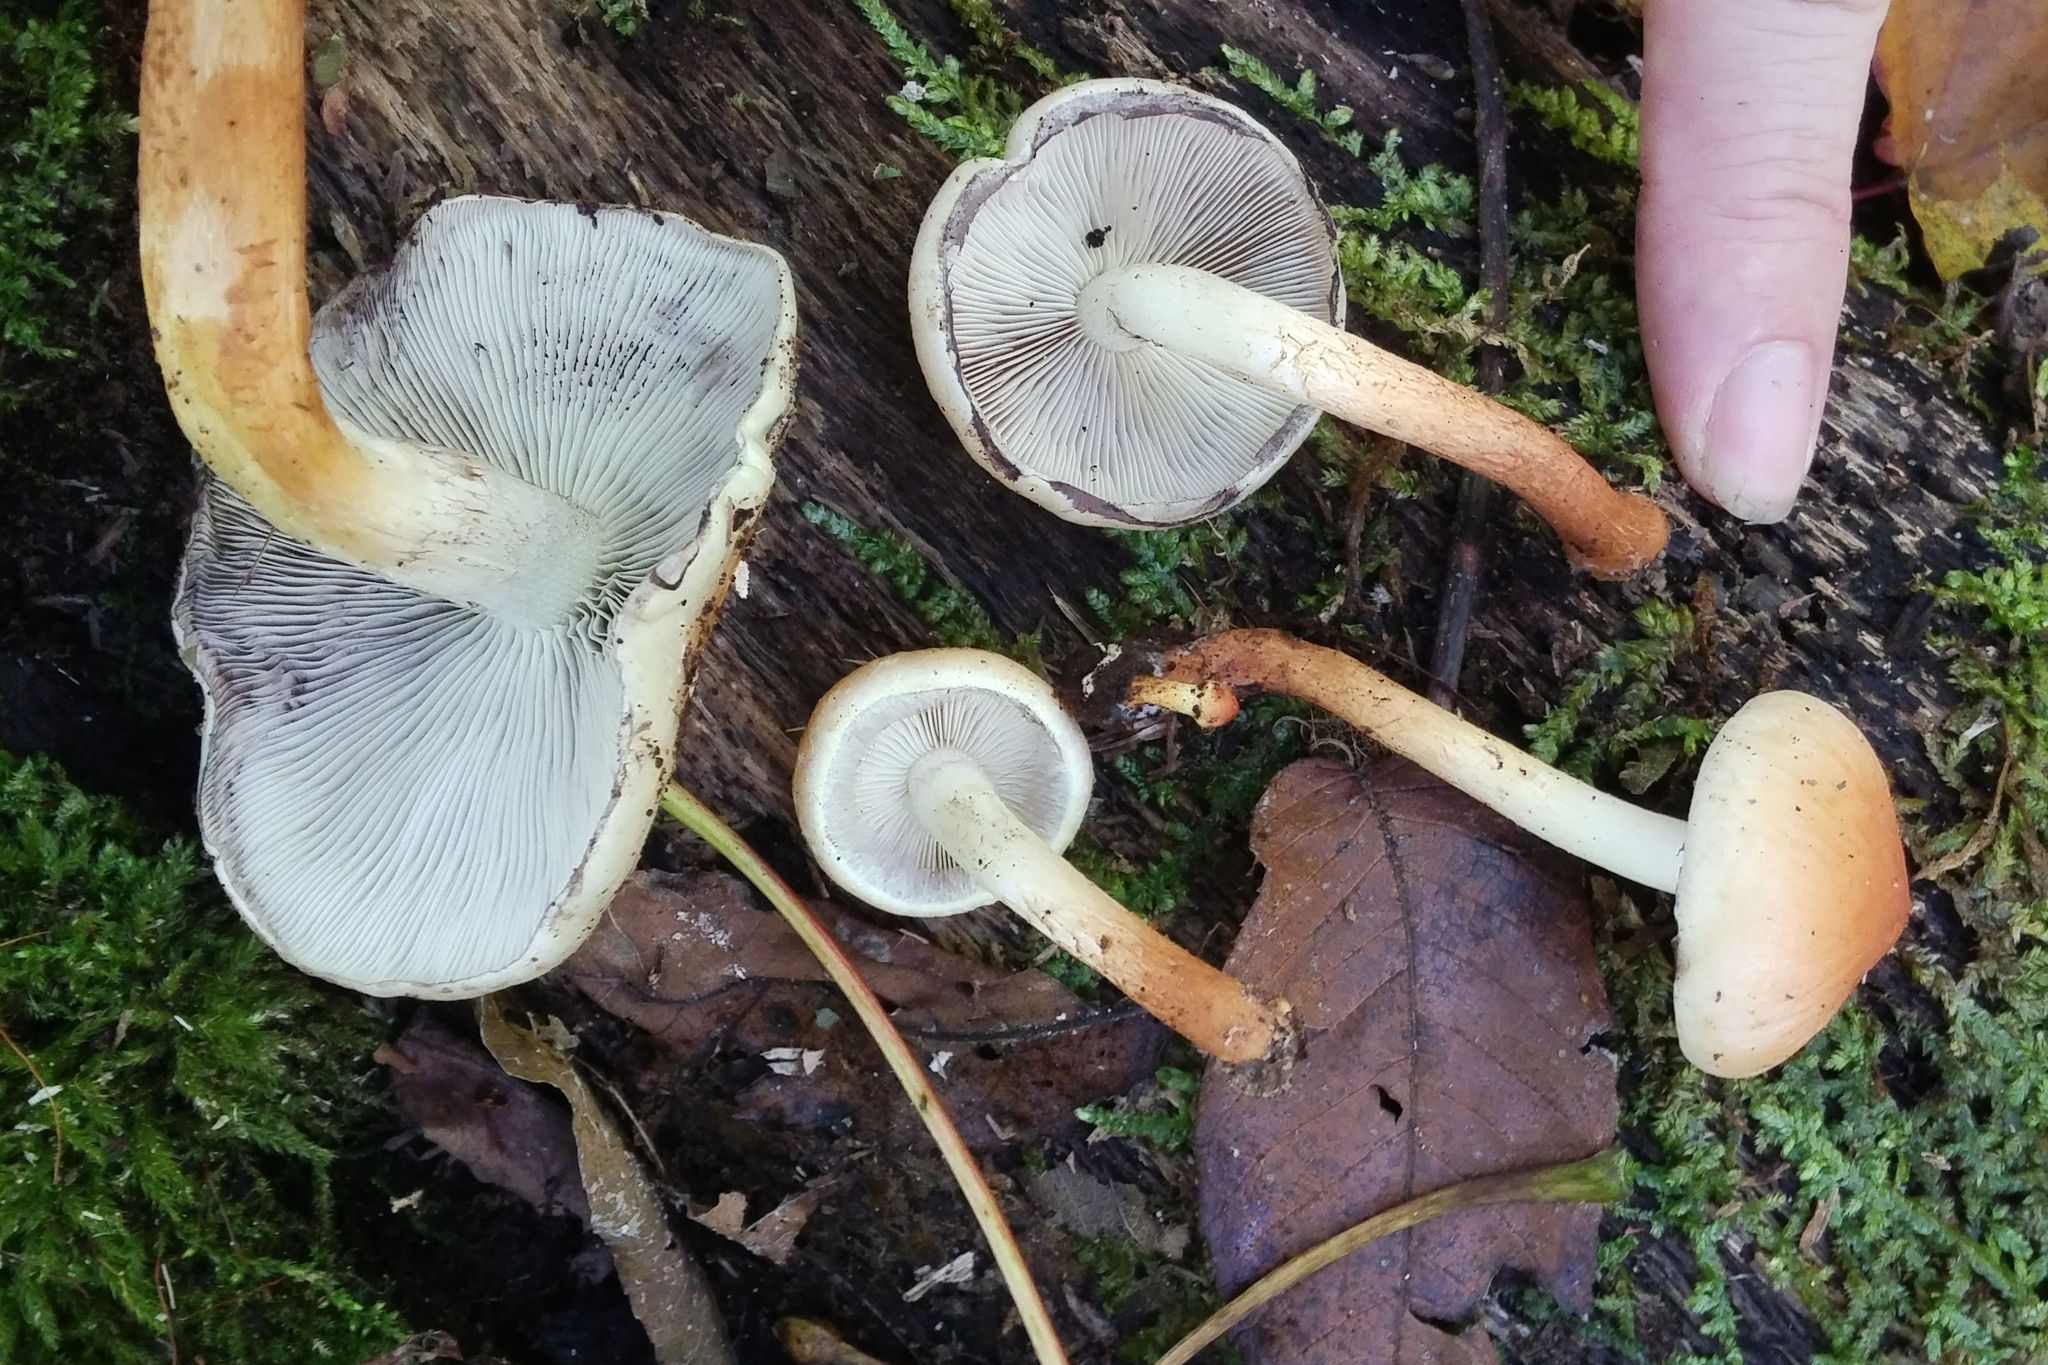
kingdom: Fungi
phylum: Basidiomycota
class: Agaricomycetes
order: Agaricales
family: Strophariaceae
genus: Hypholoma
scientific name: Hypholoma lateritium
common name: Brick caps
